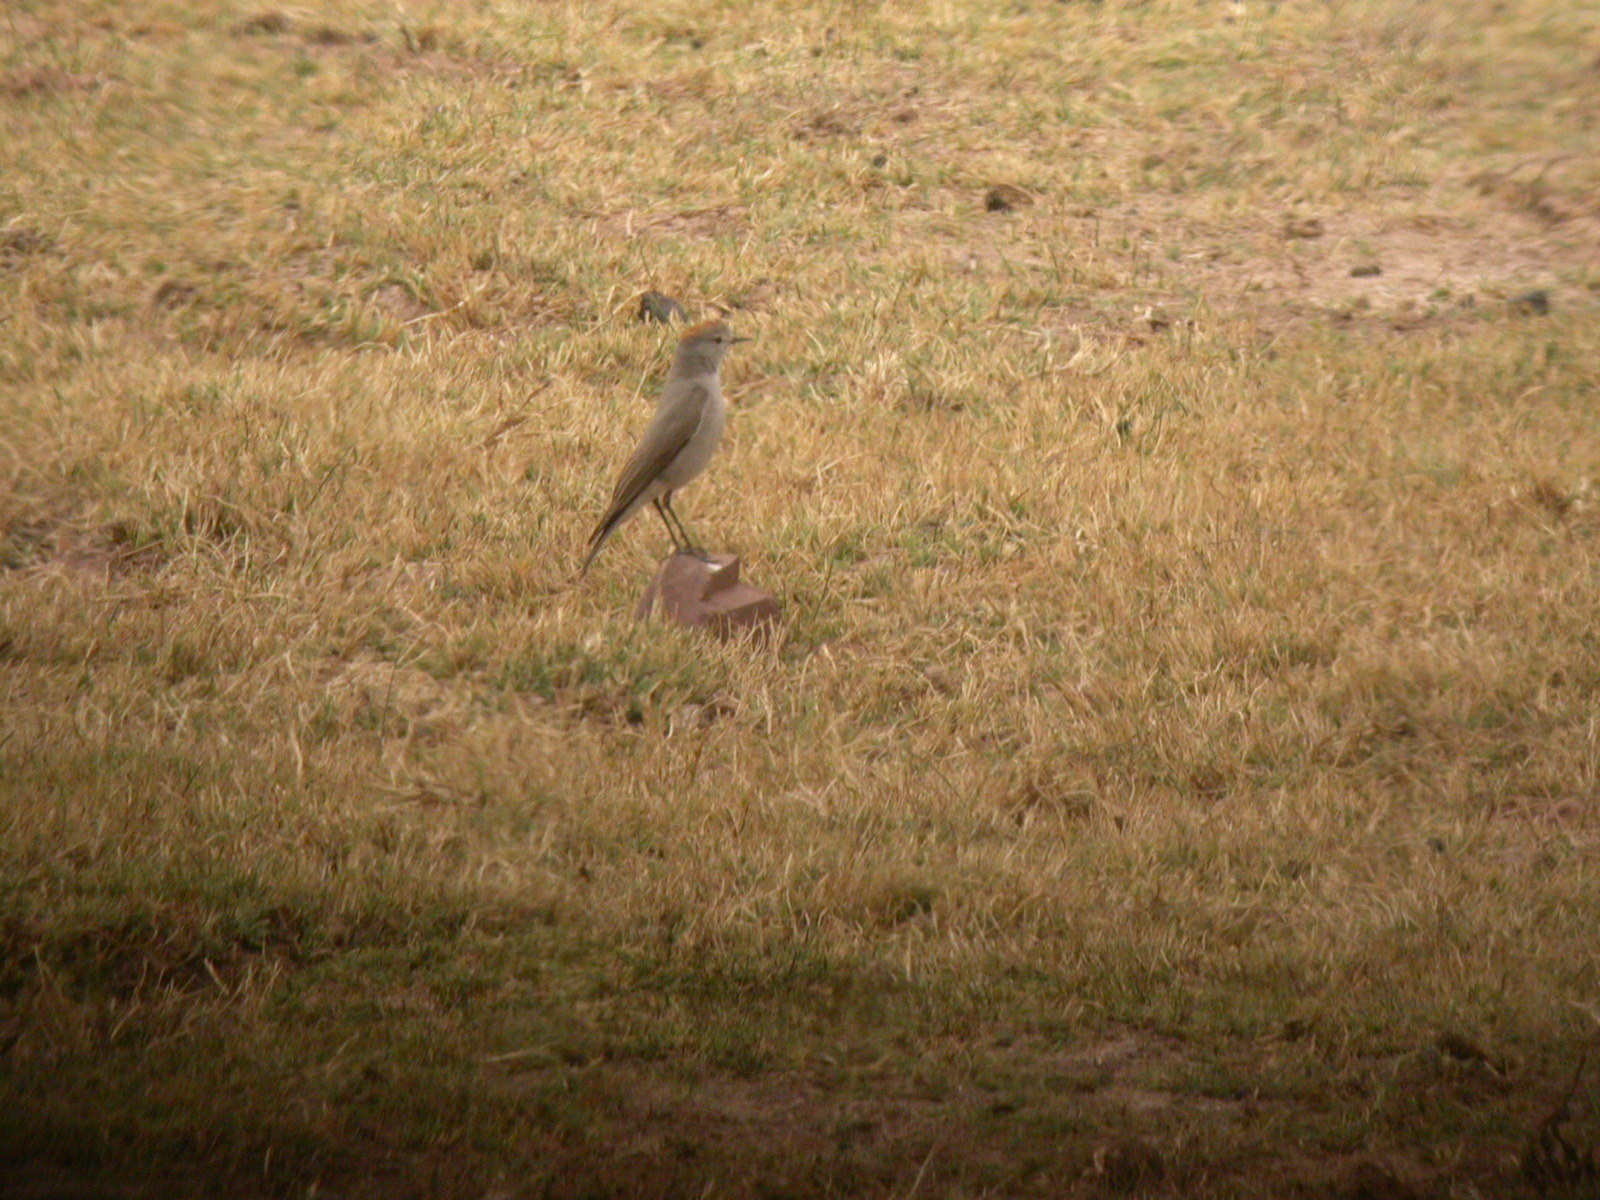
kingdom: Animalia
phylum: Chordata
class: Aves
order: Passeriformes
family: Tyrannidae
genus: Muscisaxicola
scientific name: Muscisaxicola rufivertex
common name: Rufous-naped ground tyrant
